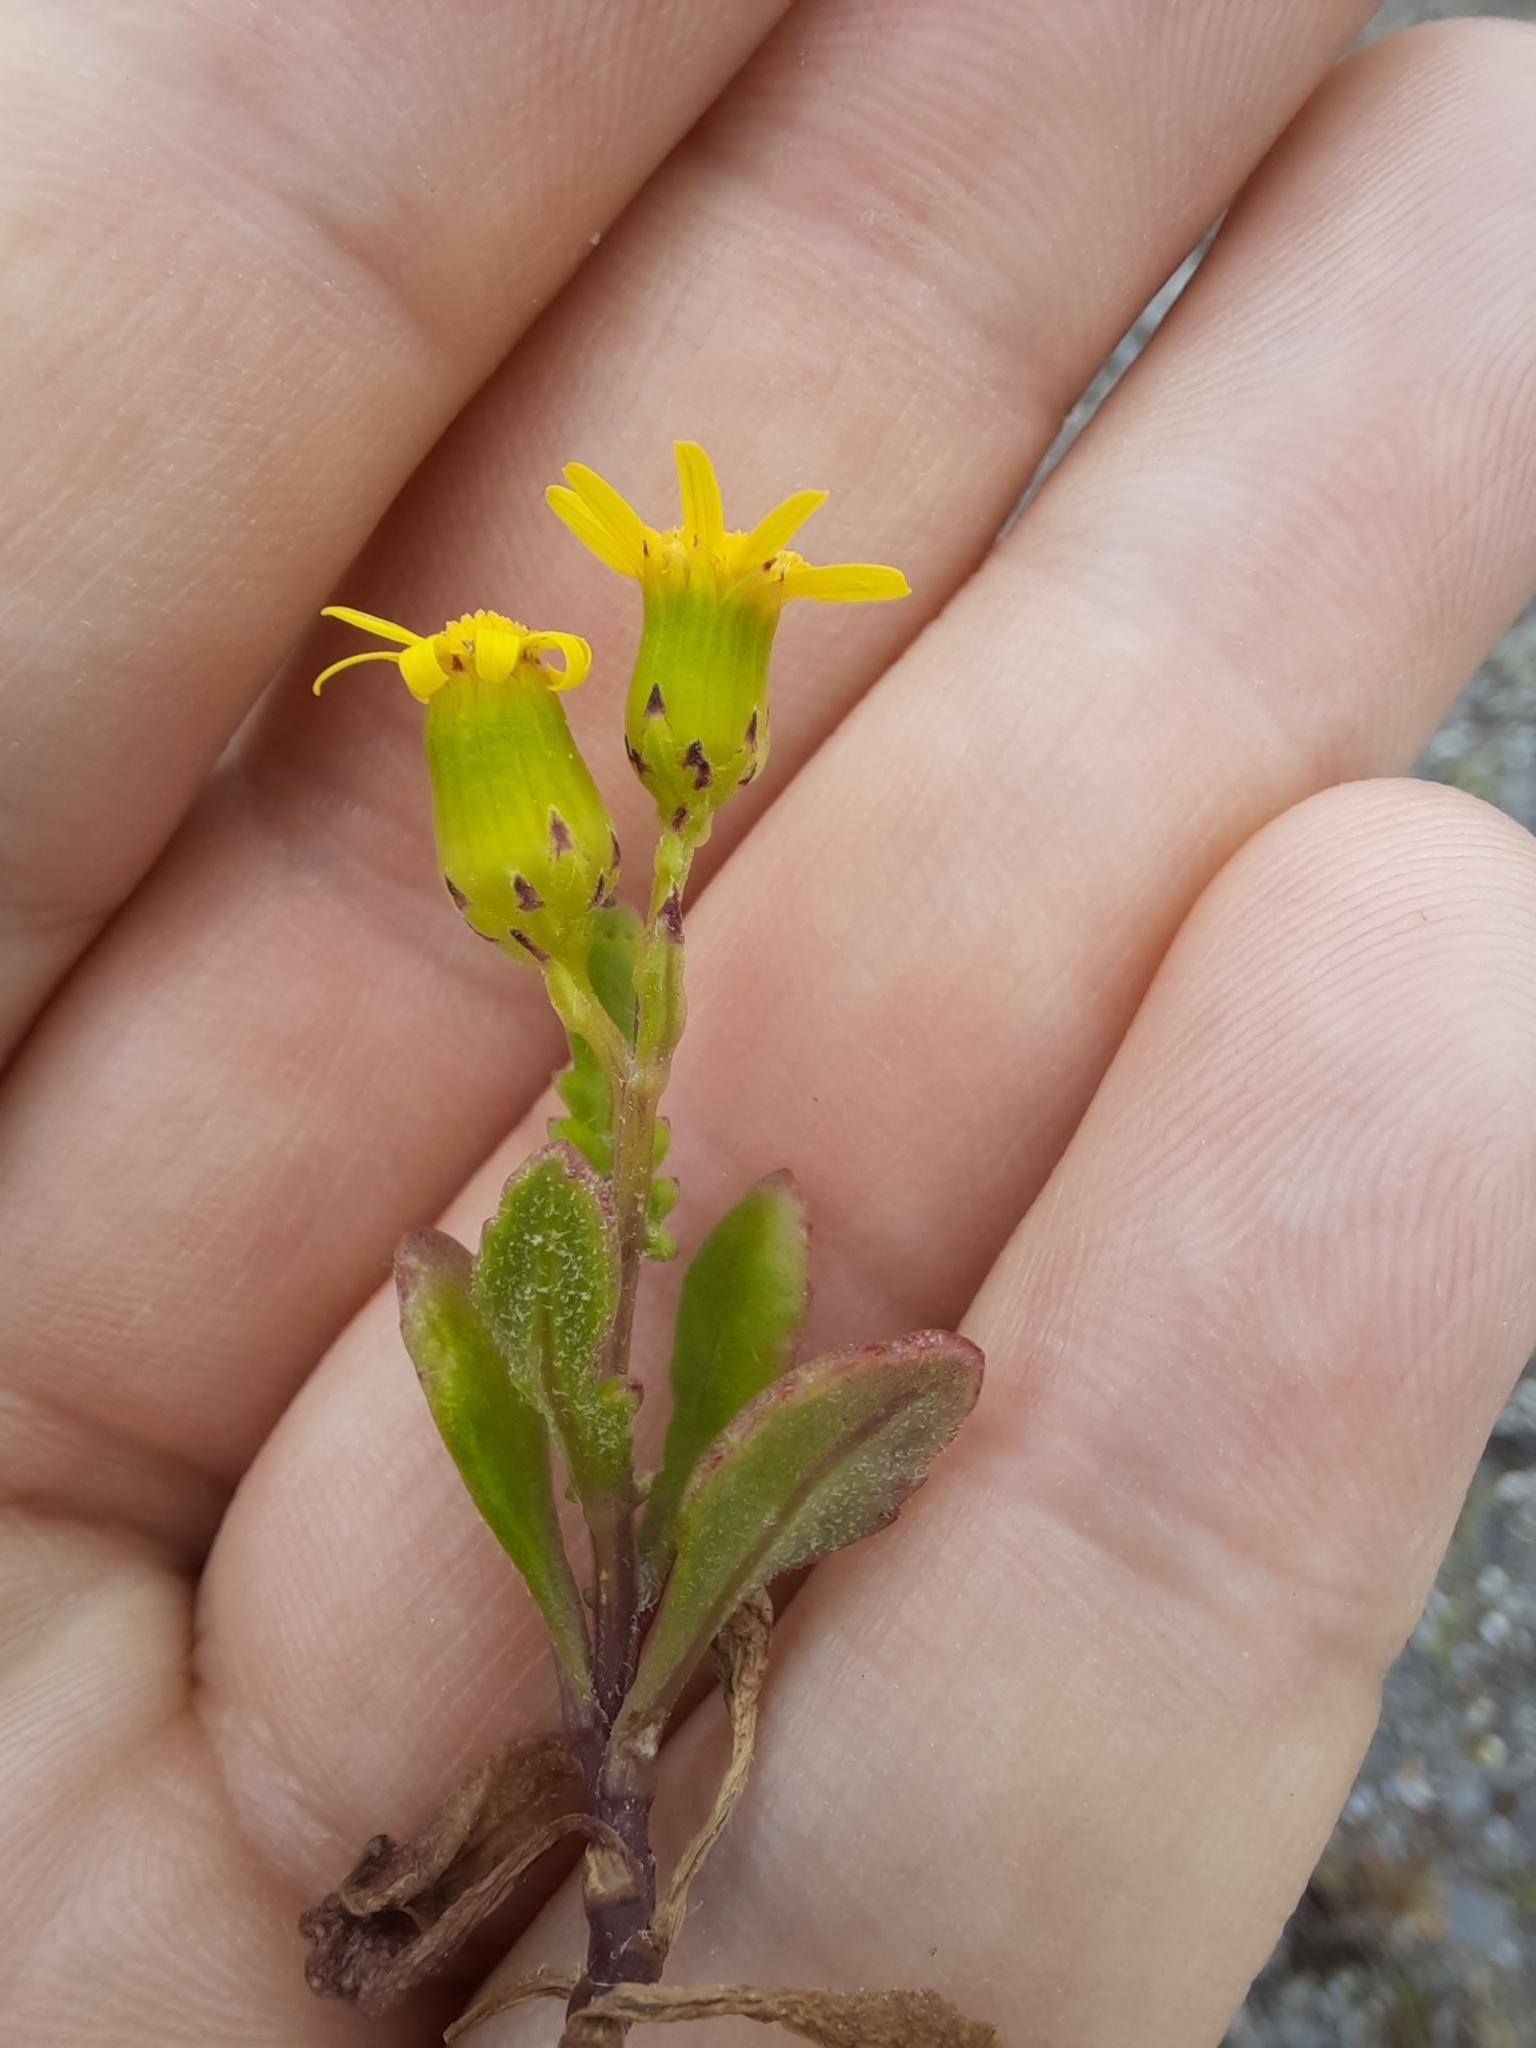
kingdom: Plantae
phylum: Tracheophyta
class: Magnoliopsida
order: Asterales
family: Asteraceae
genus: Senecio
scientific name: Senecio lautus
